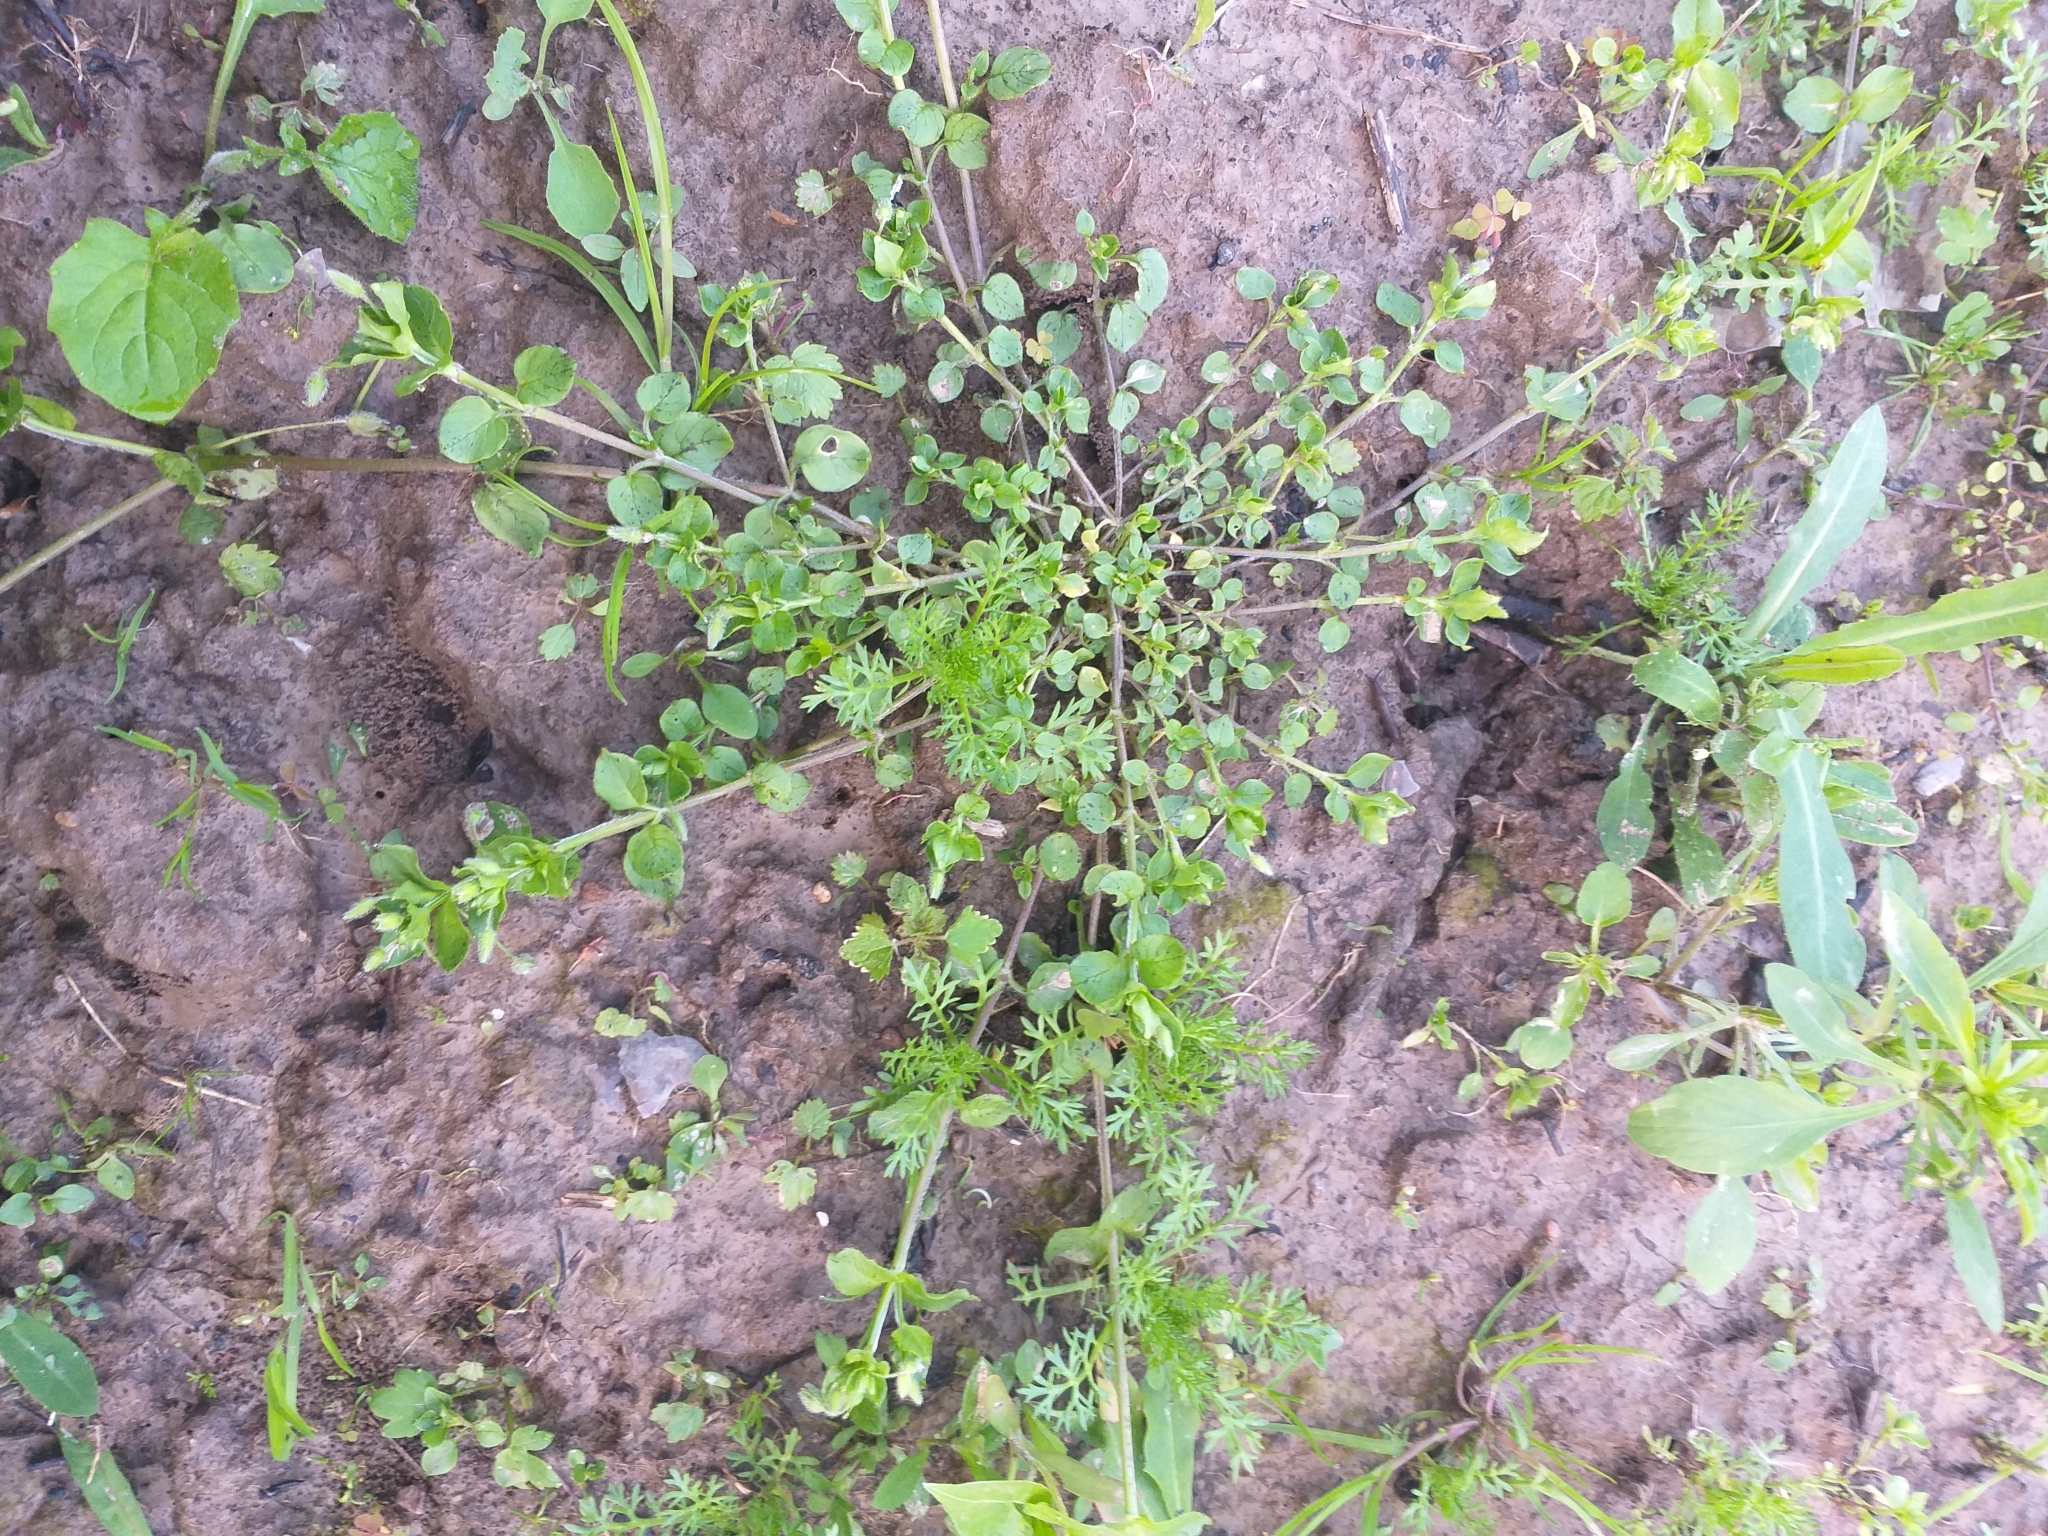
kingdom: Plantae
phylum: Tracheophyta
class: Magnoliopsida
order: Caryophyllales
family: Caryophyllaceae
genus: Stellaria
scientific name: Stellaria media
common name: Common chickweed
